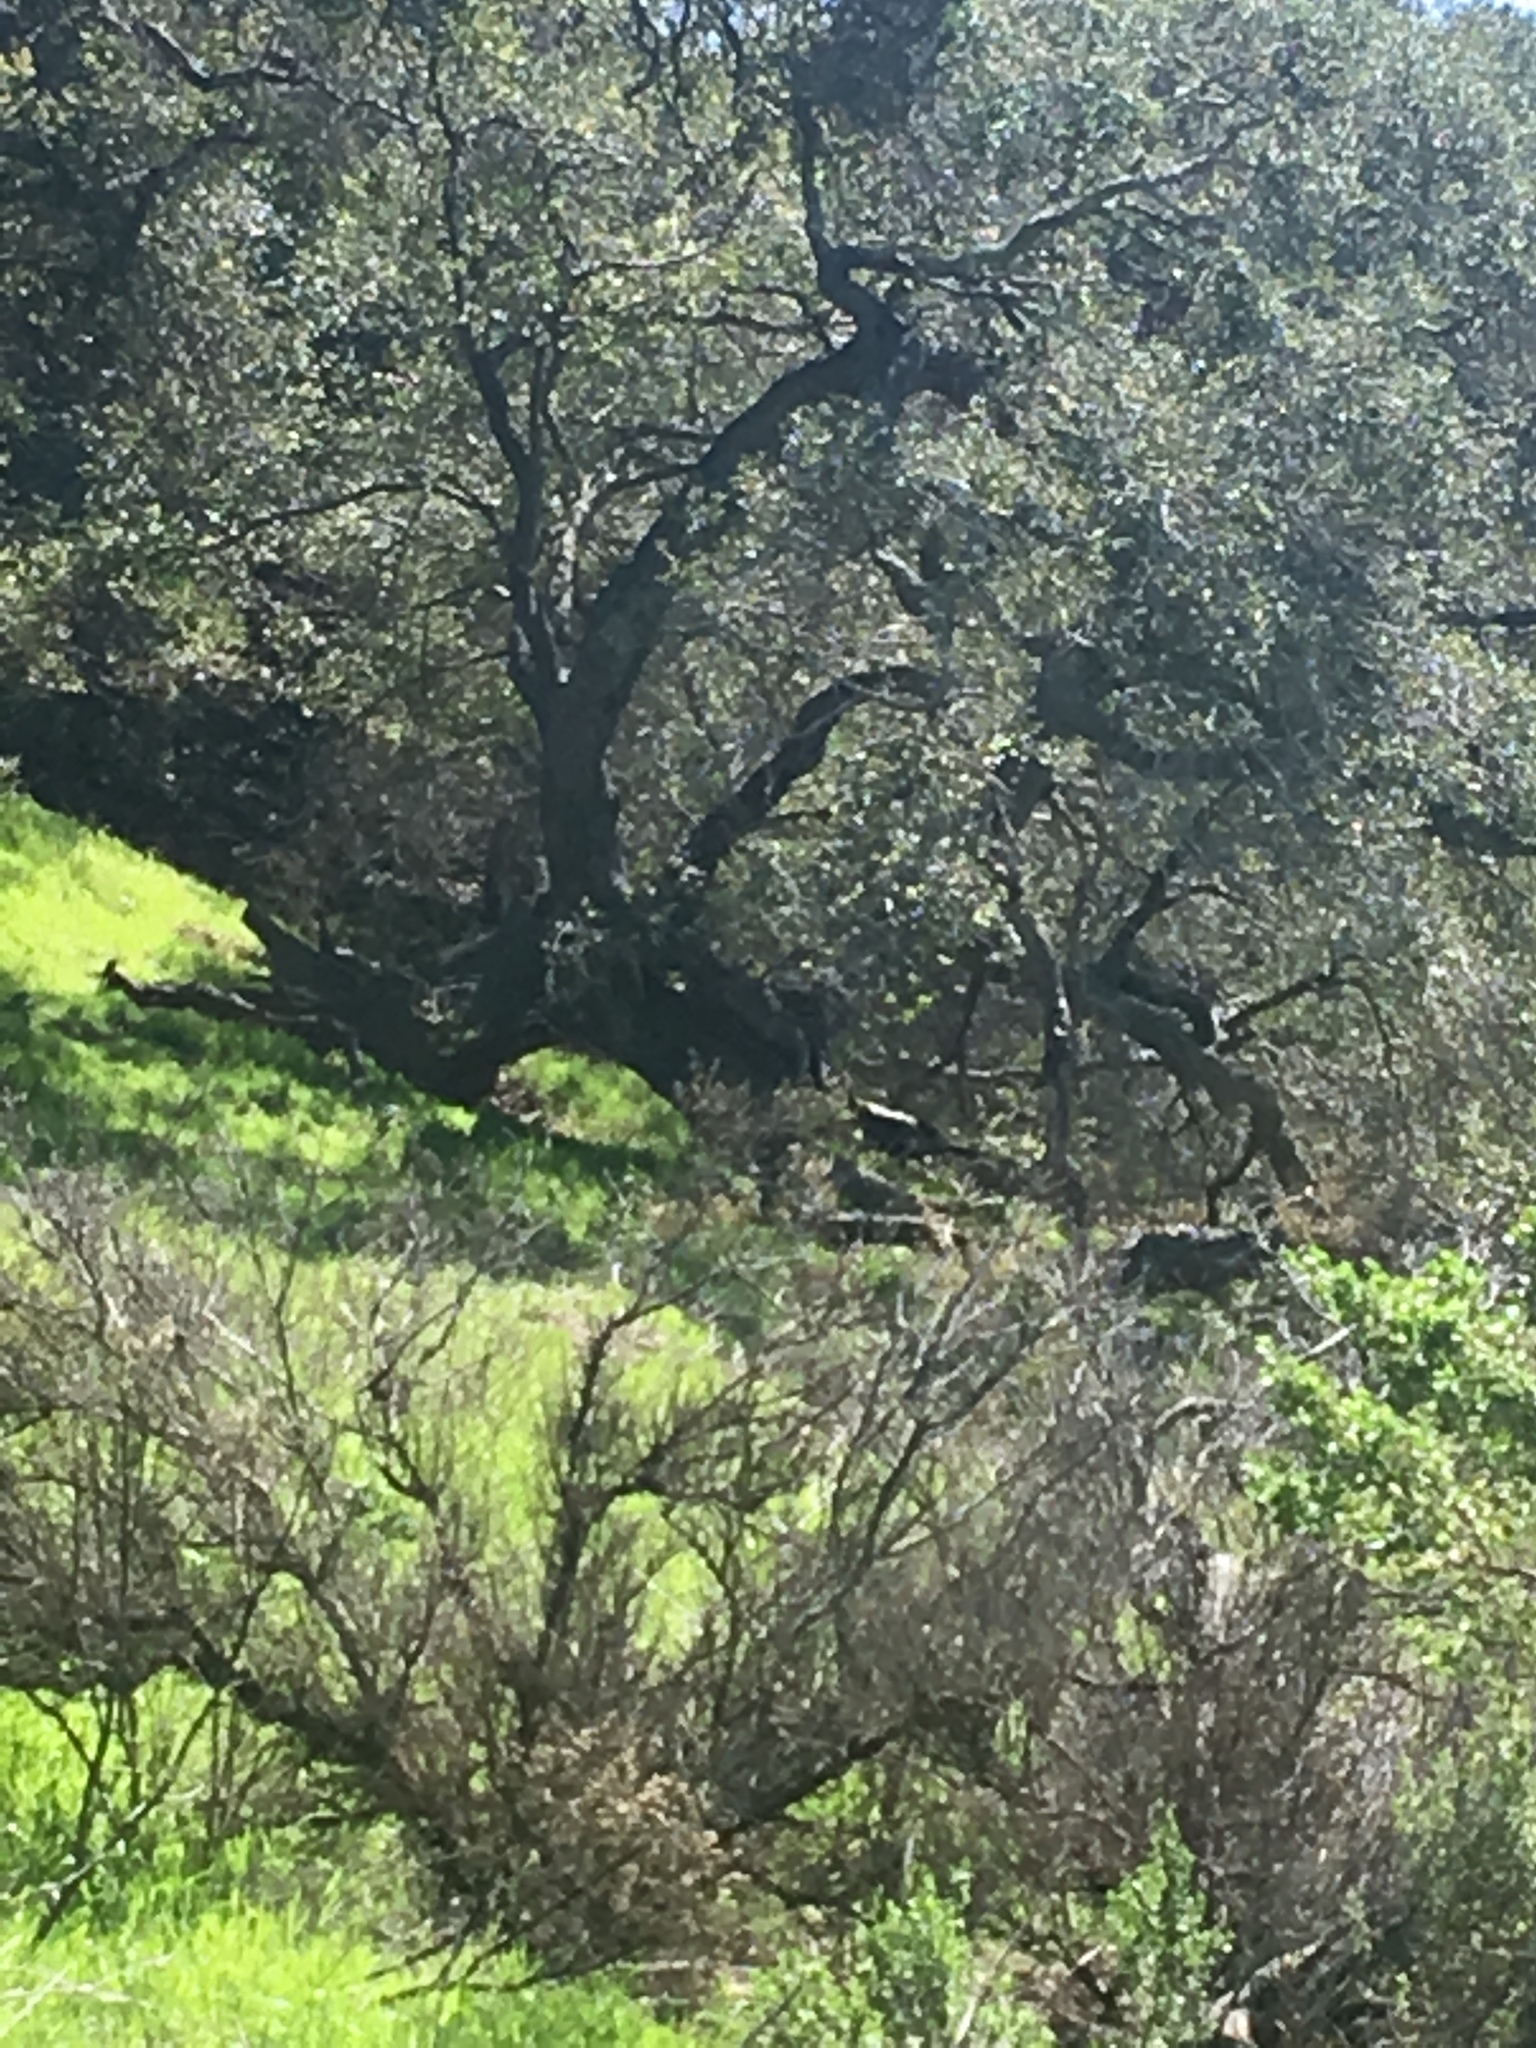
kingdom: Animalia
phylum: Chordata
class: Aves
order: Galliformes
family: Phasianidae
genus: Meleagris
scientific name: Meleagris gallopavo
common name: Wild turkey
